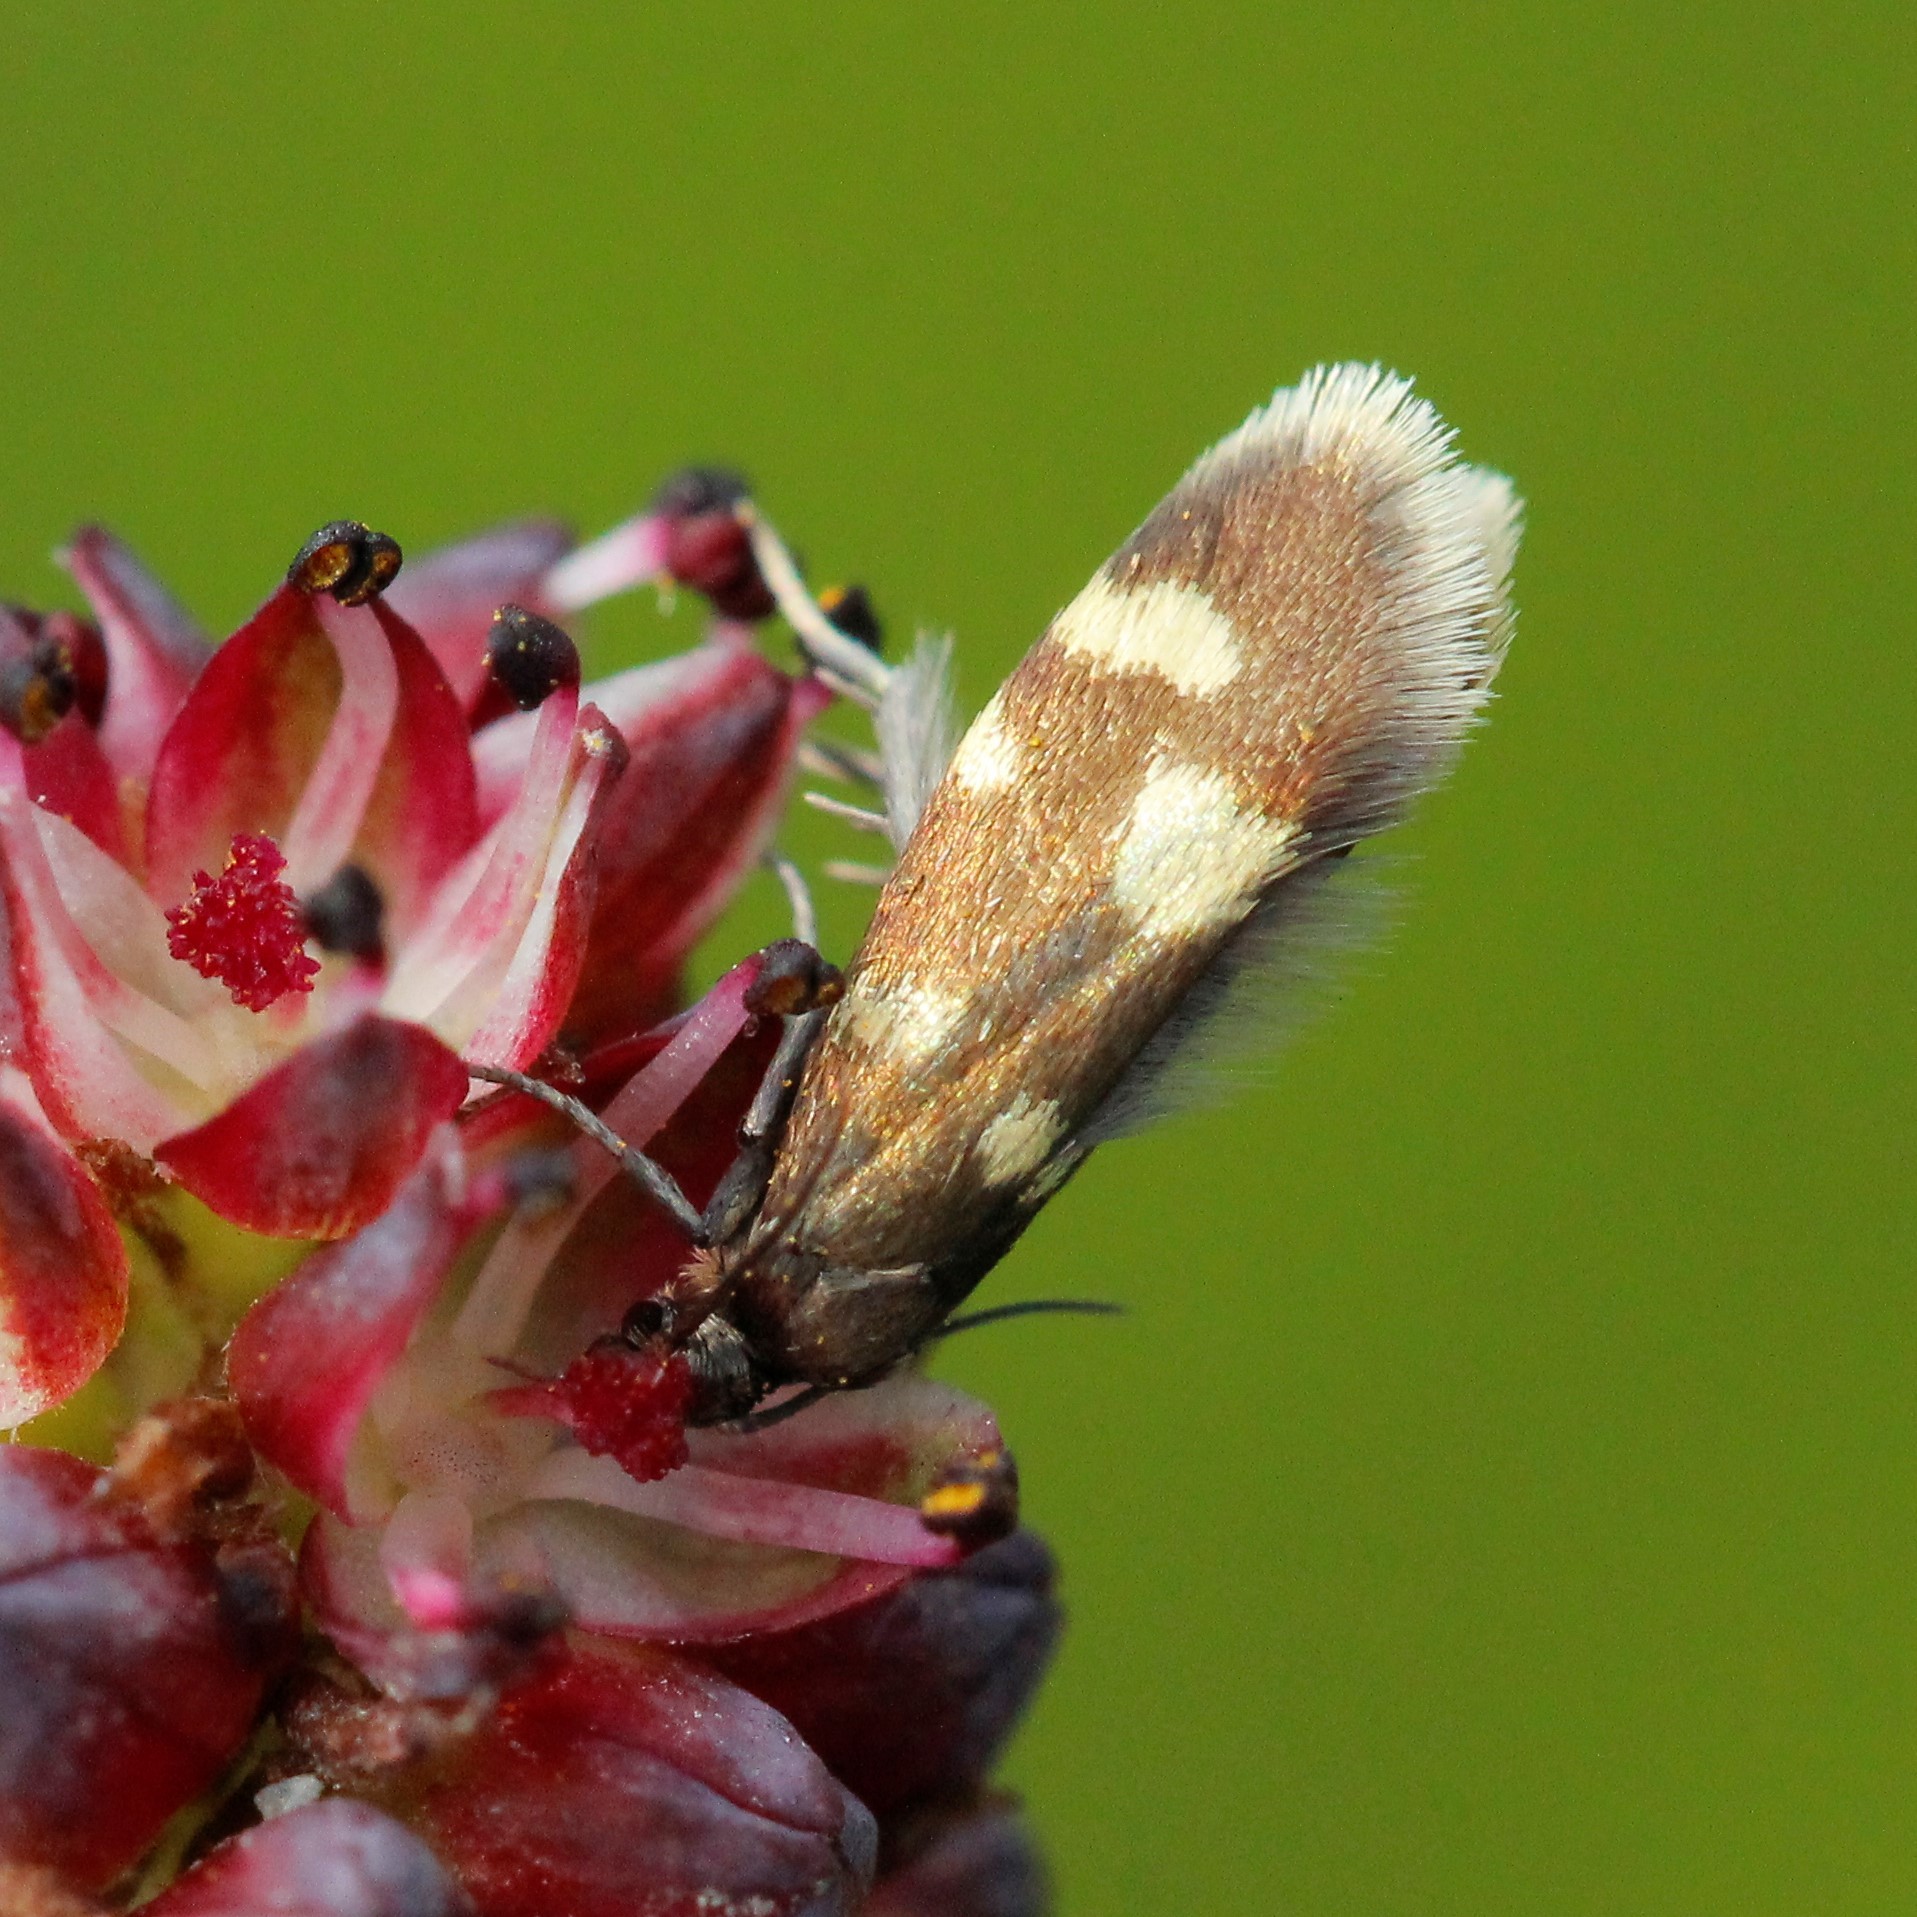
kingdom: Animalia
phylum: Arthropoda
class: Insecta
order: Lepidoptera
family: Incurvariidae
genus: Lampronia
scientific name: Lampronia
